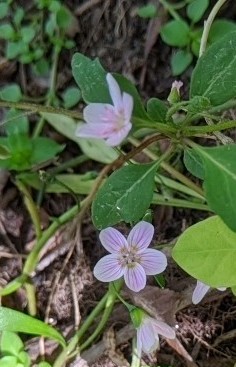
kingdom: Plantae
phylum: Tracheophyta
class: Magnoliopsida
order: Caryophyllales
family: Montiaceae
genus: Claytonia
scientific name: Claytonia virginica
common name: Virginia springbeauty
